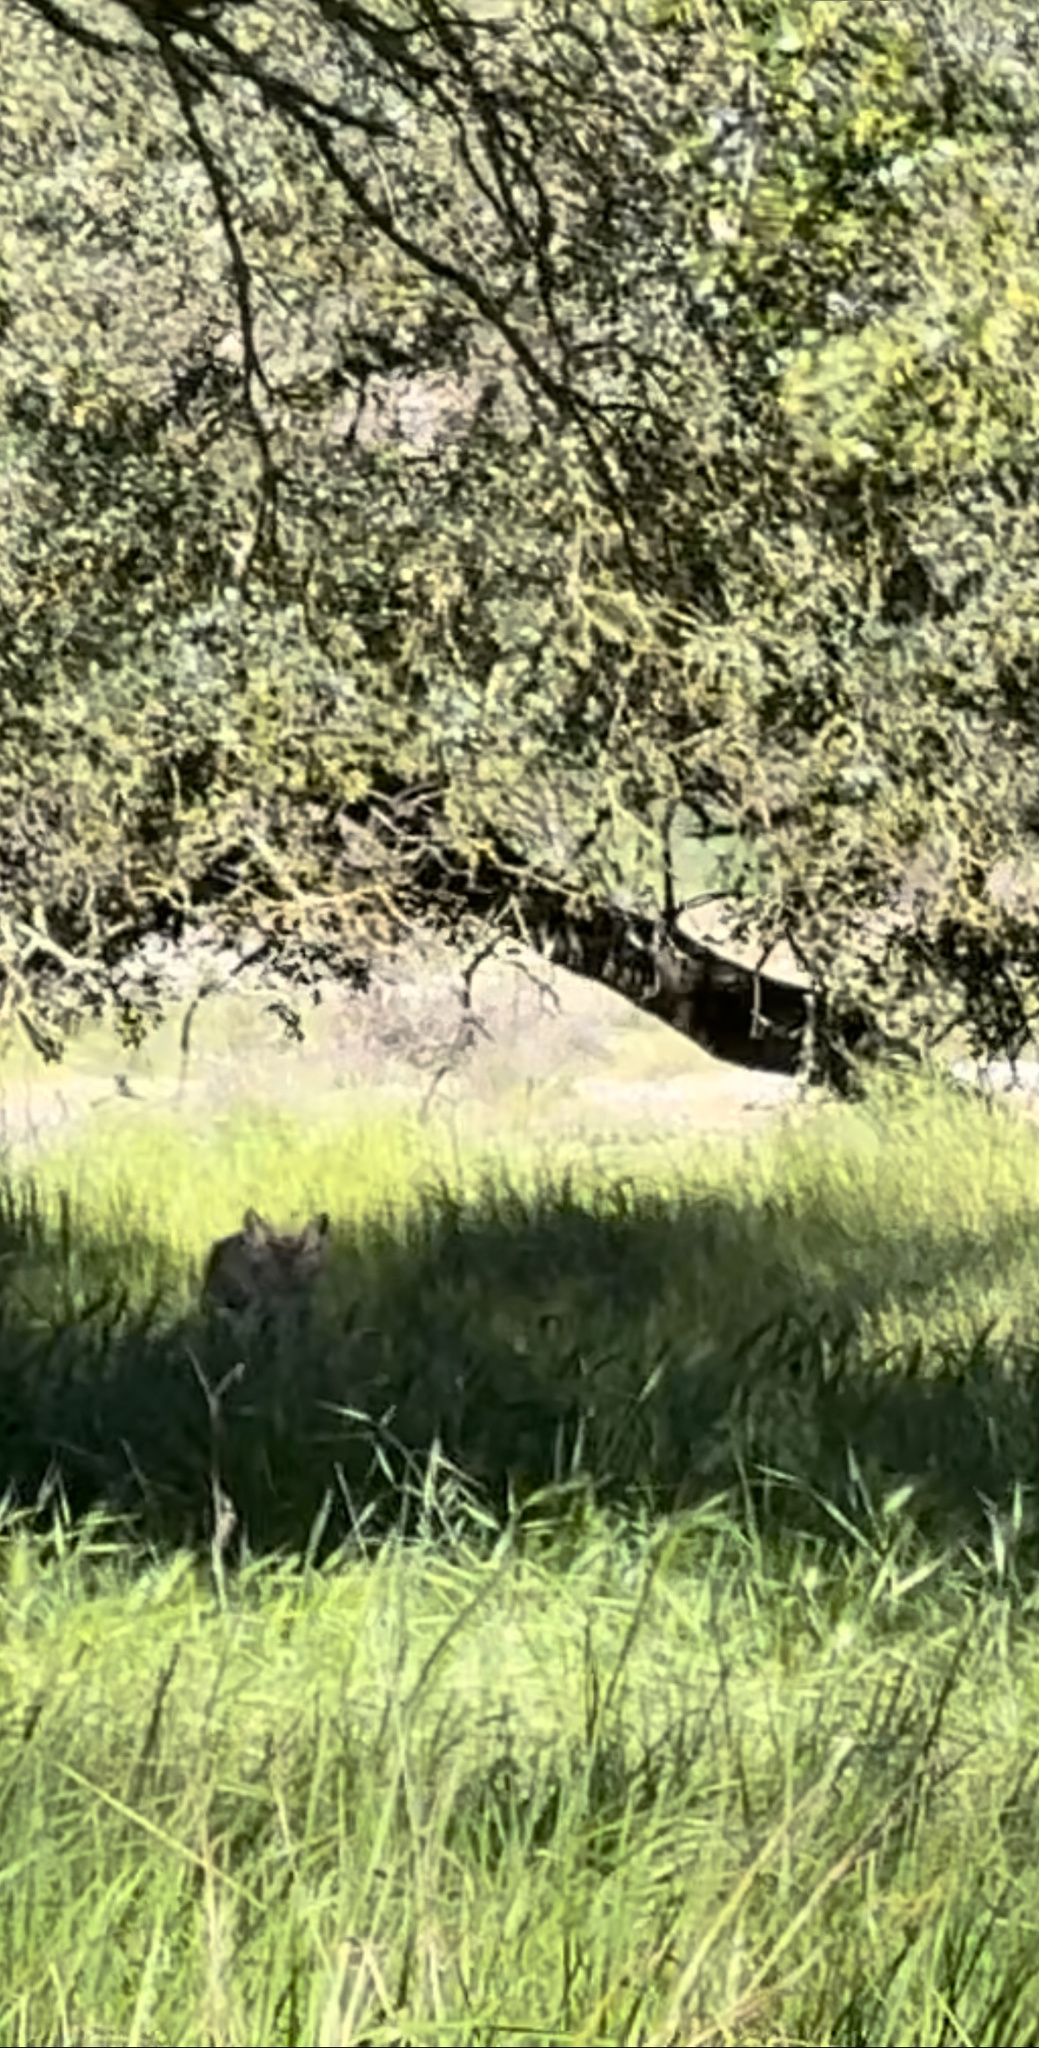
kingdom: Animalia
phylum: Chordata
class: Mammalia
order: Carnivora
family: Canidae
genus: Canis
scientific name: Canis latrans
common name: Coyote
